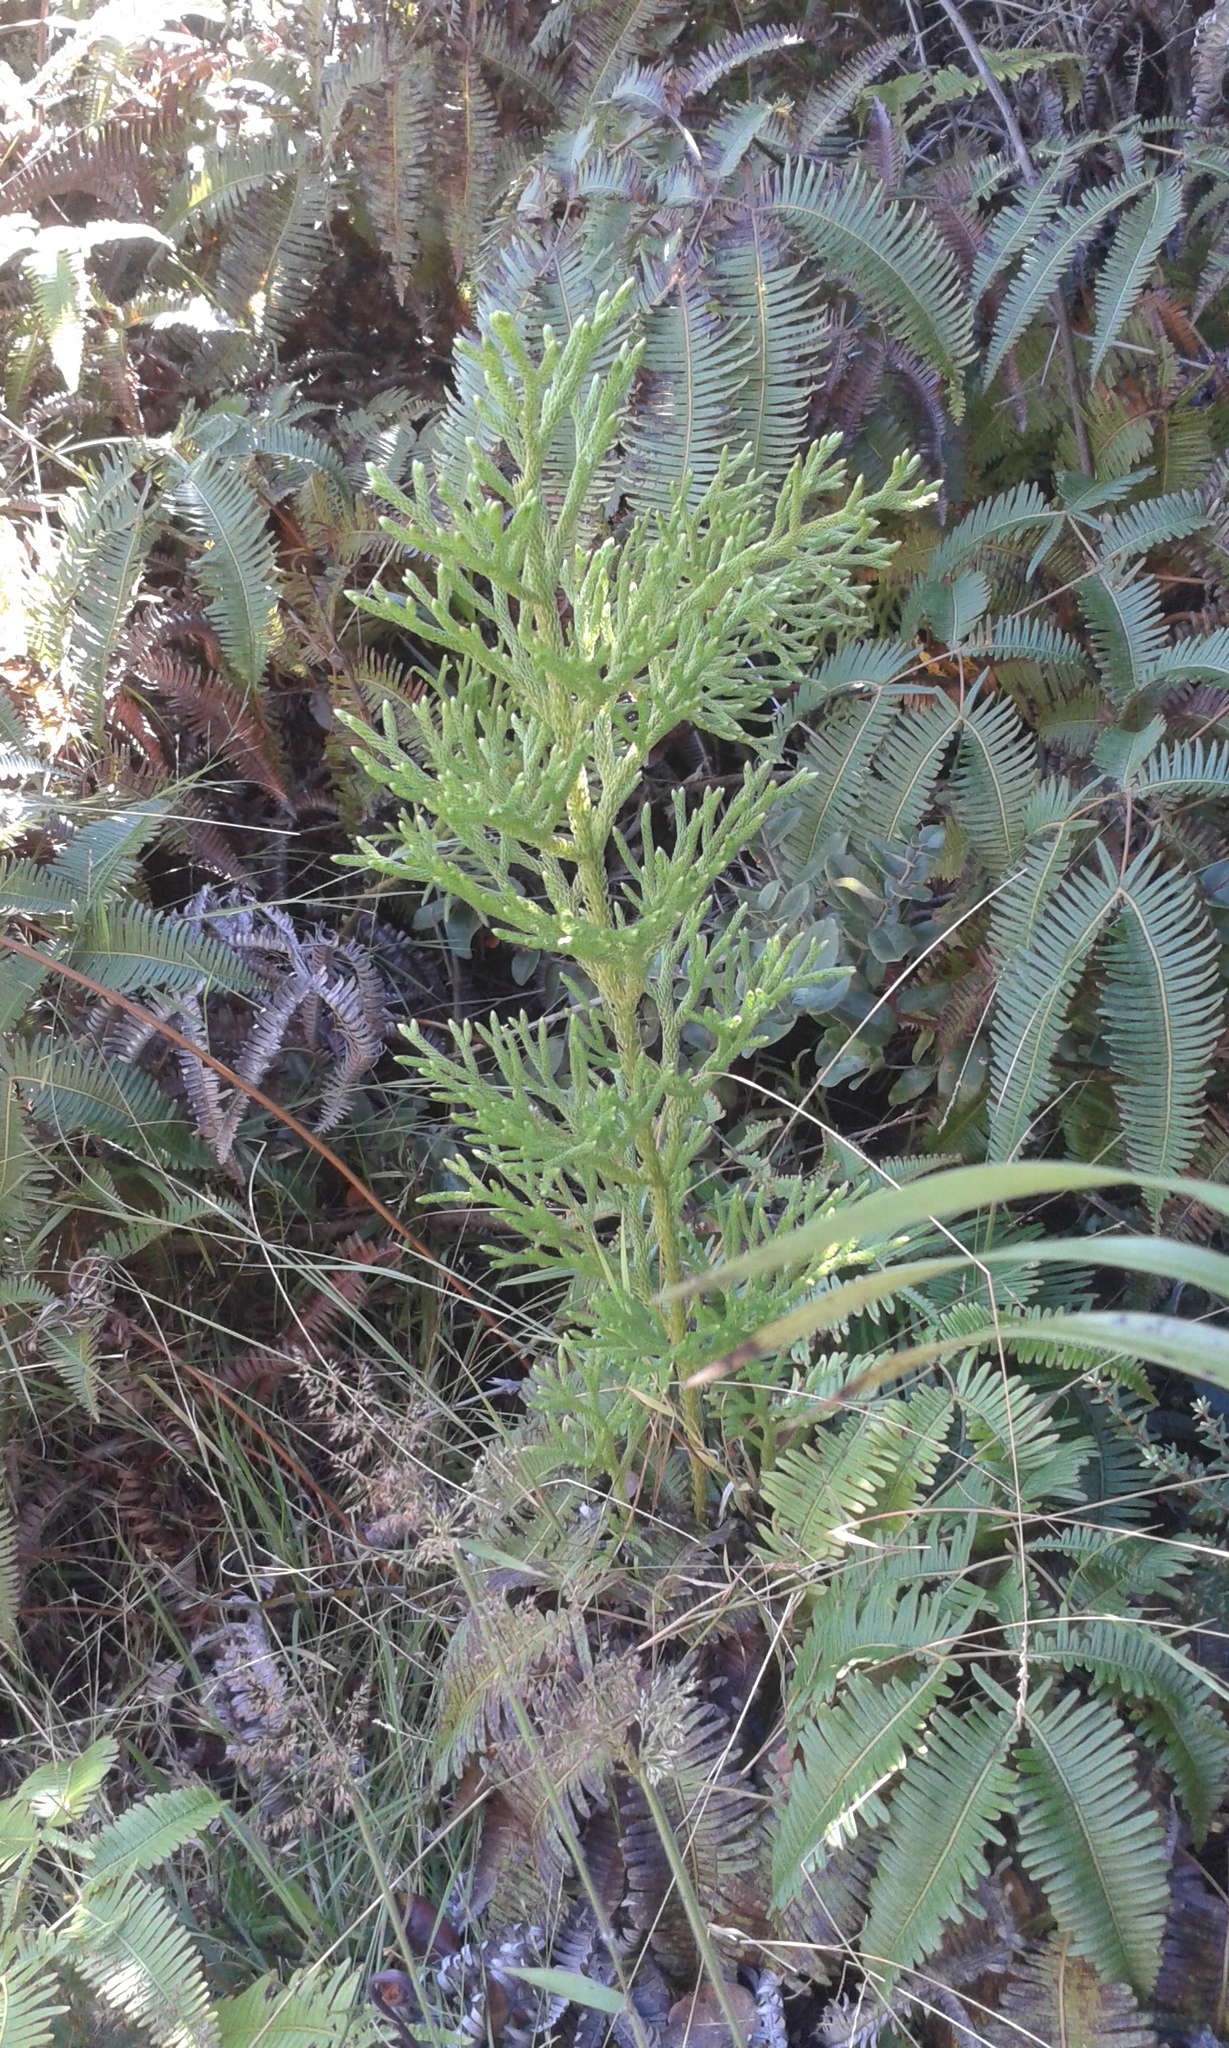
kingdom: Plantae
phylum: Tracheophyta
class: Lycopodiopsida
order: Lycopodiales
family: Lycopodiaceae
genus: Palhinhaea
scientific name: Palhinhaea cernua
